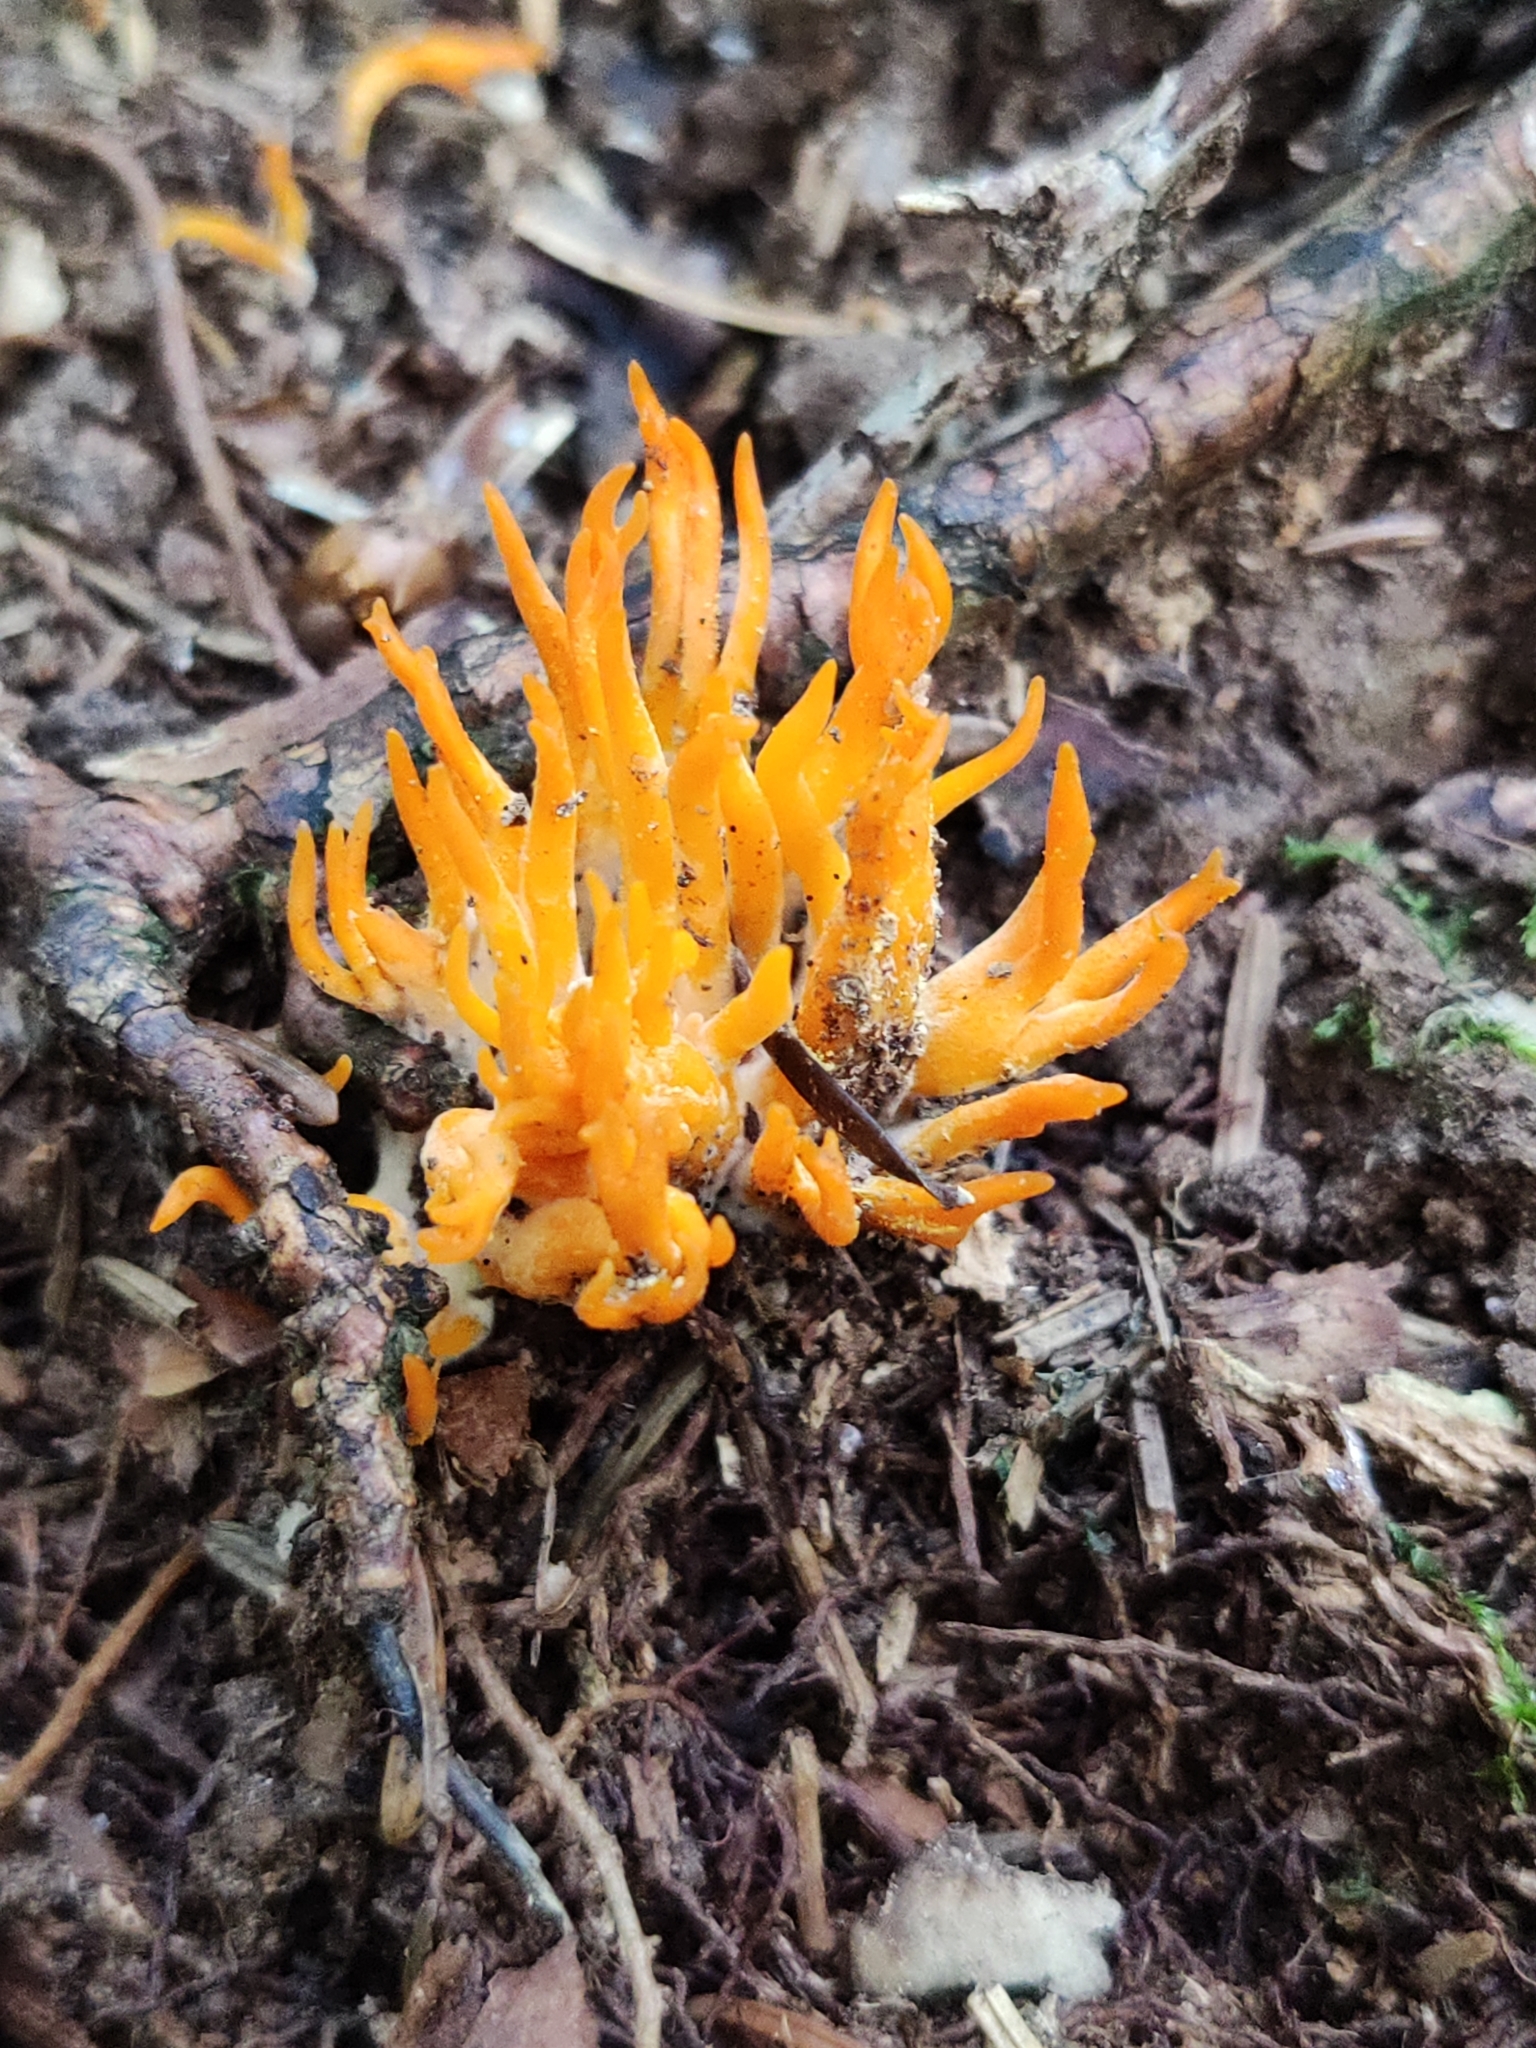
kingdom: Fungi
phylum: Basidiomycota
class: Dacrymycetes
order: Dacrymycetales
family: Dacrymycetaceae
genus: Calocera
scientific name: Calocera viscosa
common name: Yellow stagshorn
